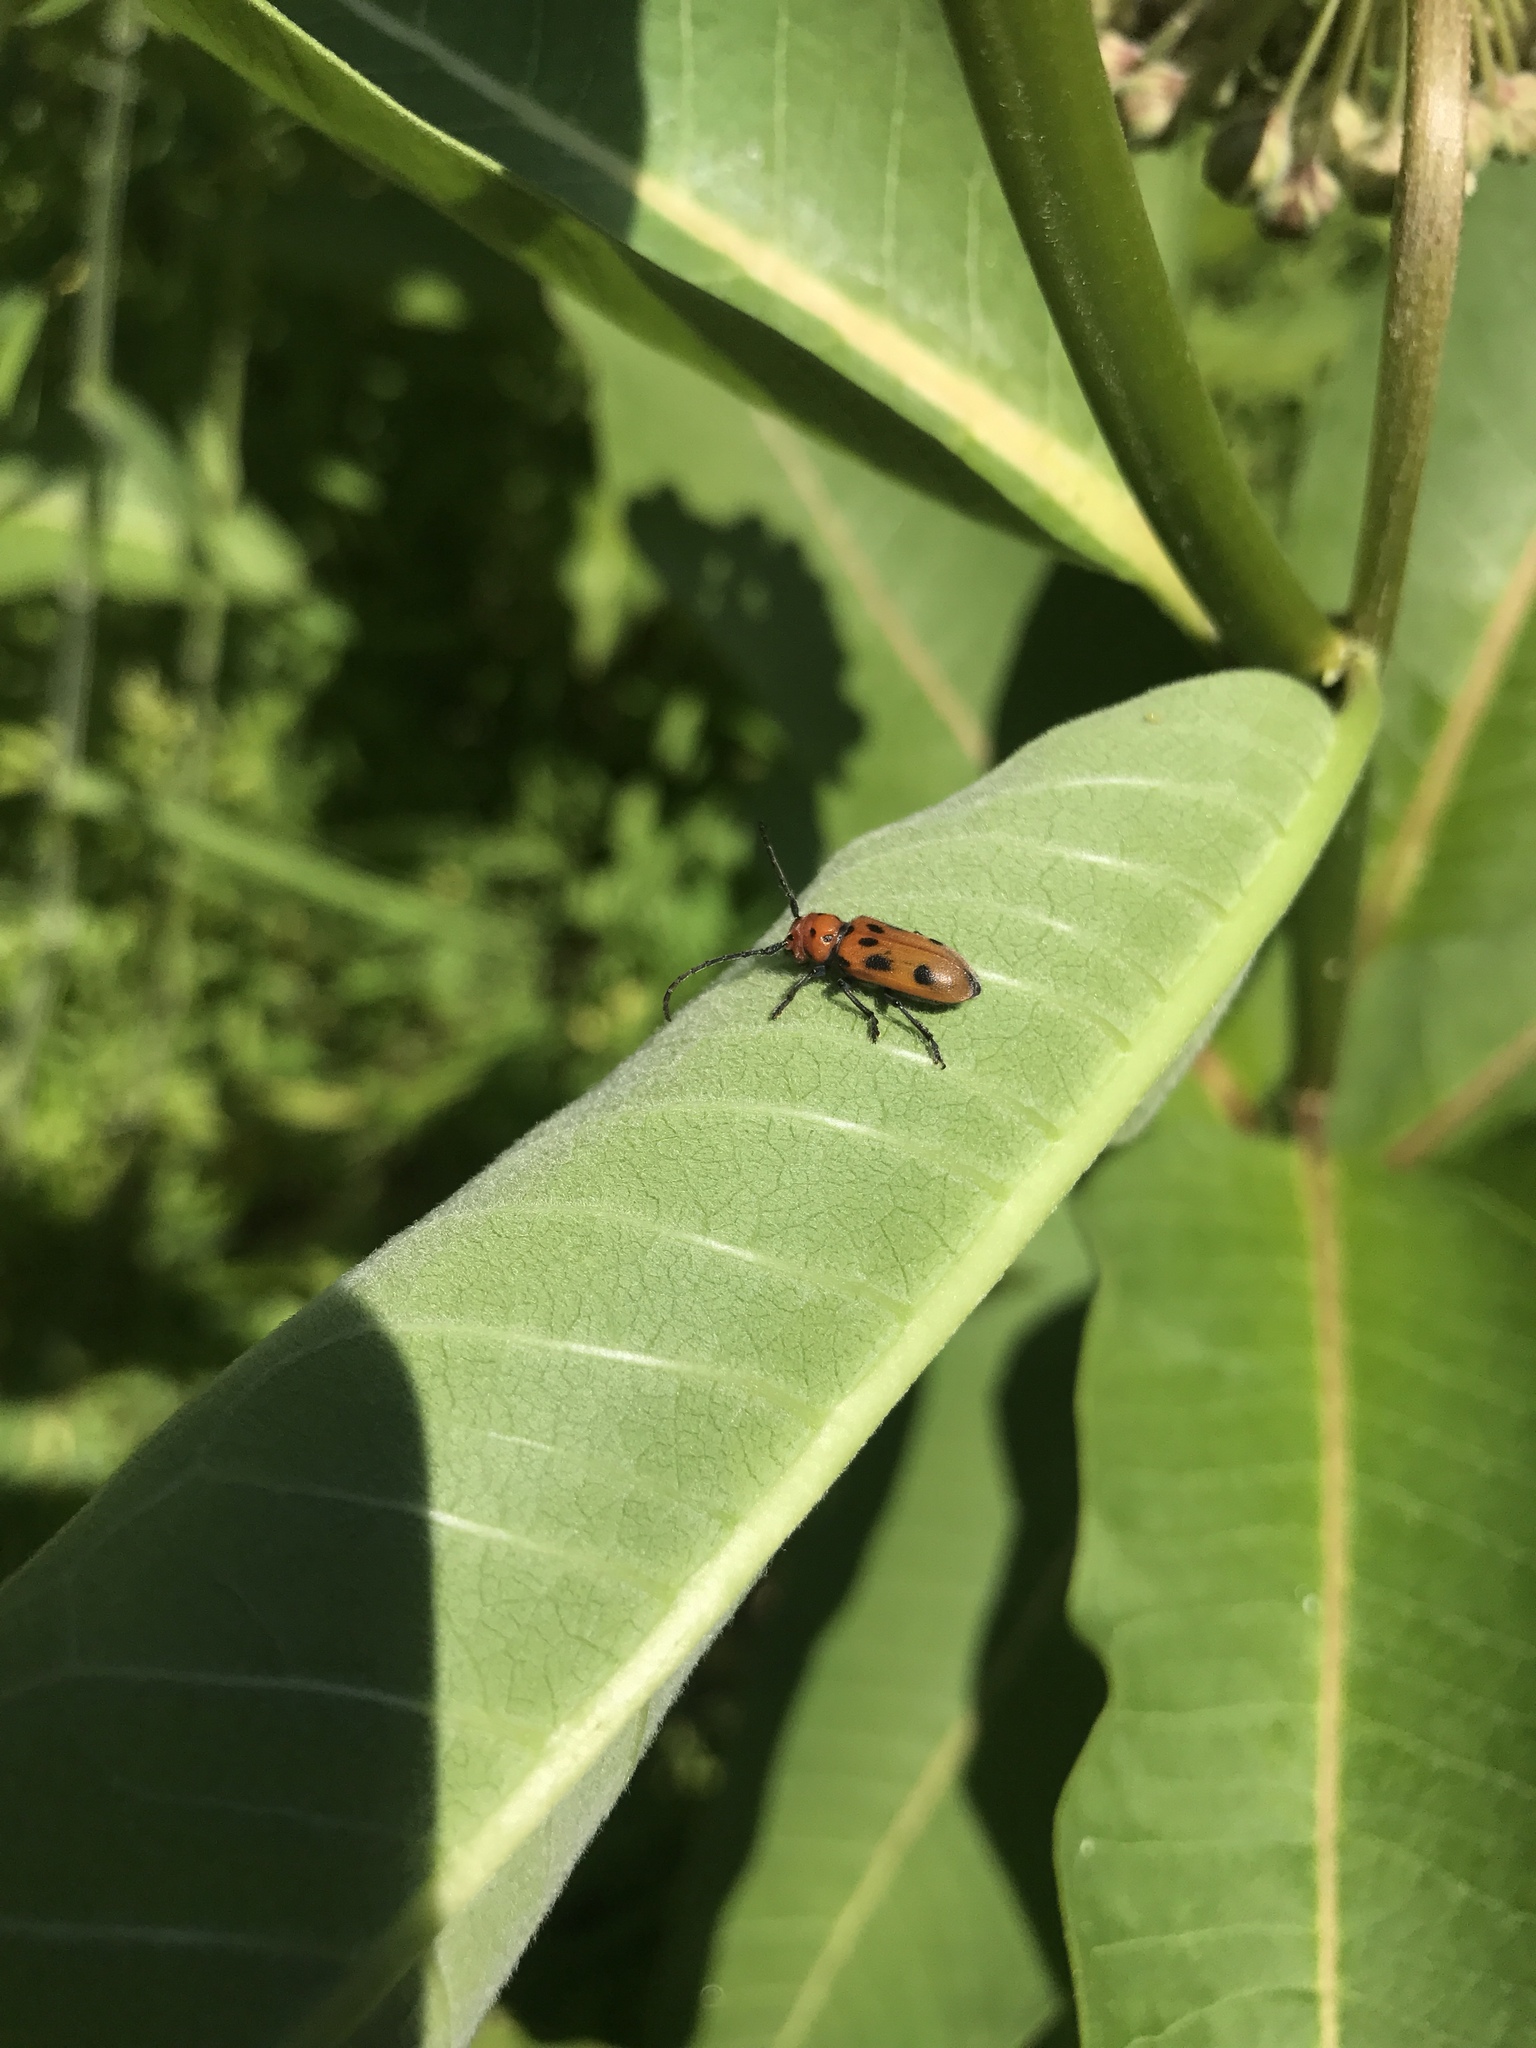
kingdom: Animalia
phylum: Arthropoda
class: Insecta
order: Coleoptera
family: Cerambycidae
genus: Tetraopes
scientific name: Tetraopes tetrophthalmus
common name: Red milkweed beetle
